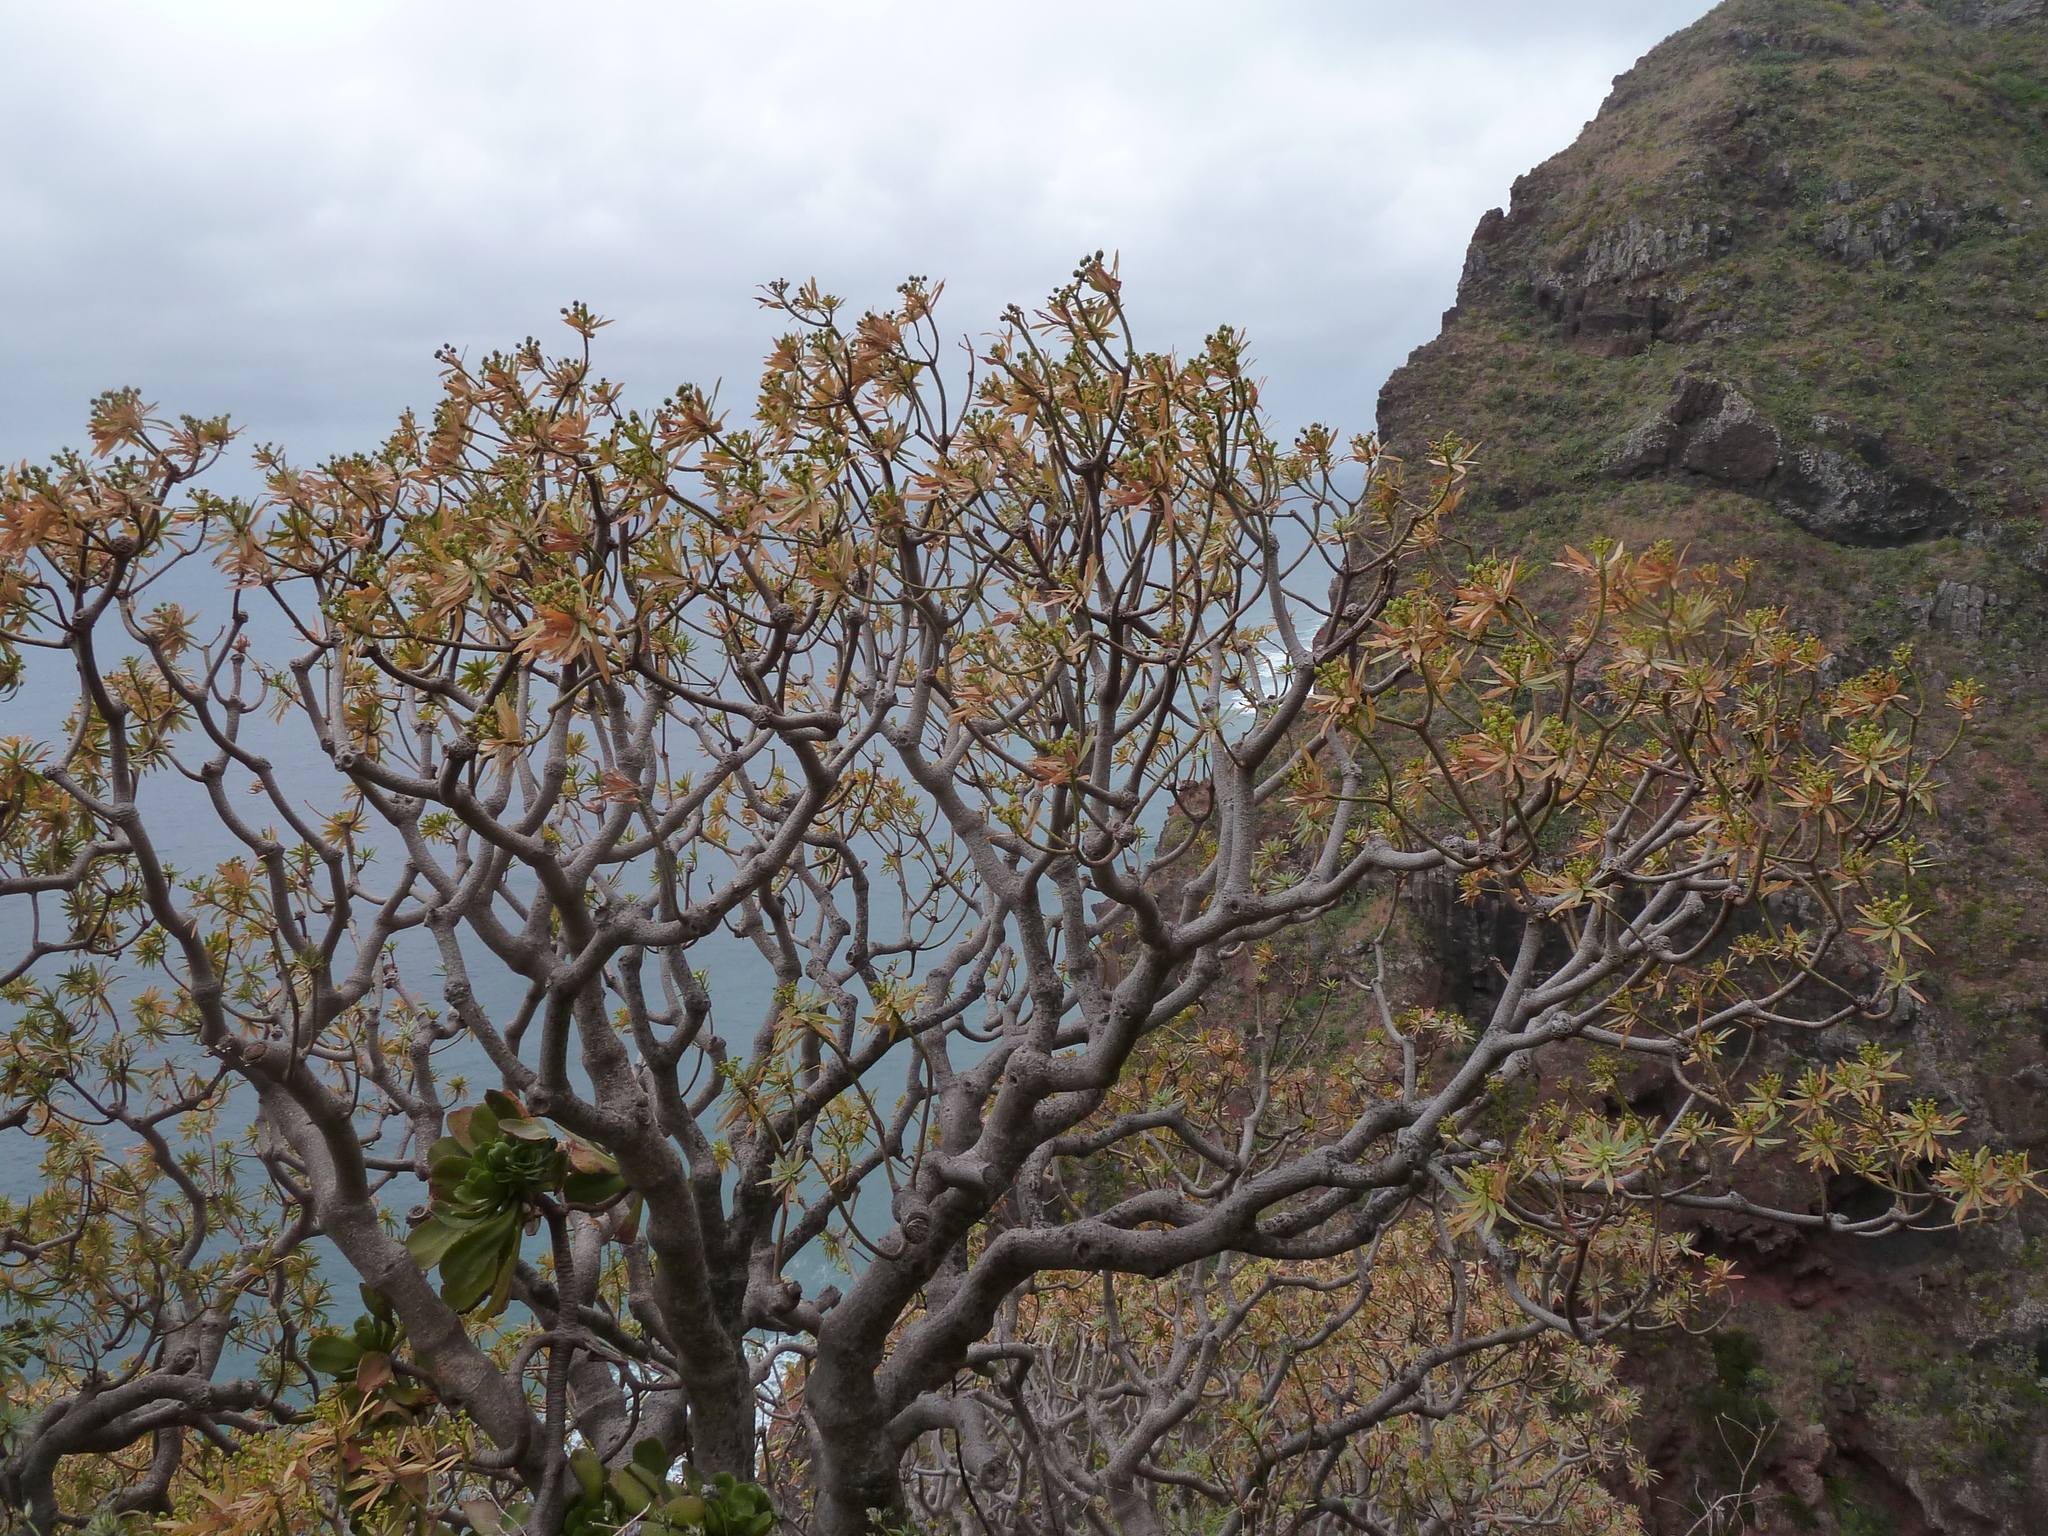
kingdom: Plantae
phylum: Tracheophyta
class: Magnoliopsida
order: Malpighiales
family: Euphorbiaceae
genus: Euphorbia
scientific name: Euphorbia piscatoria
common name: Fish-stunning spurge
